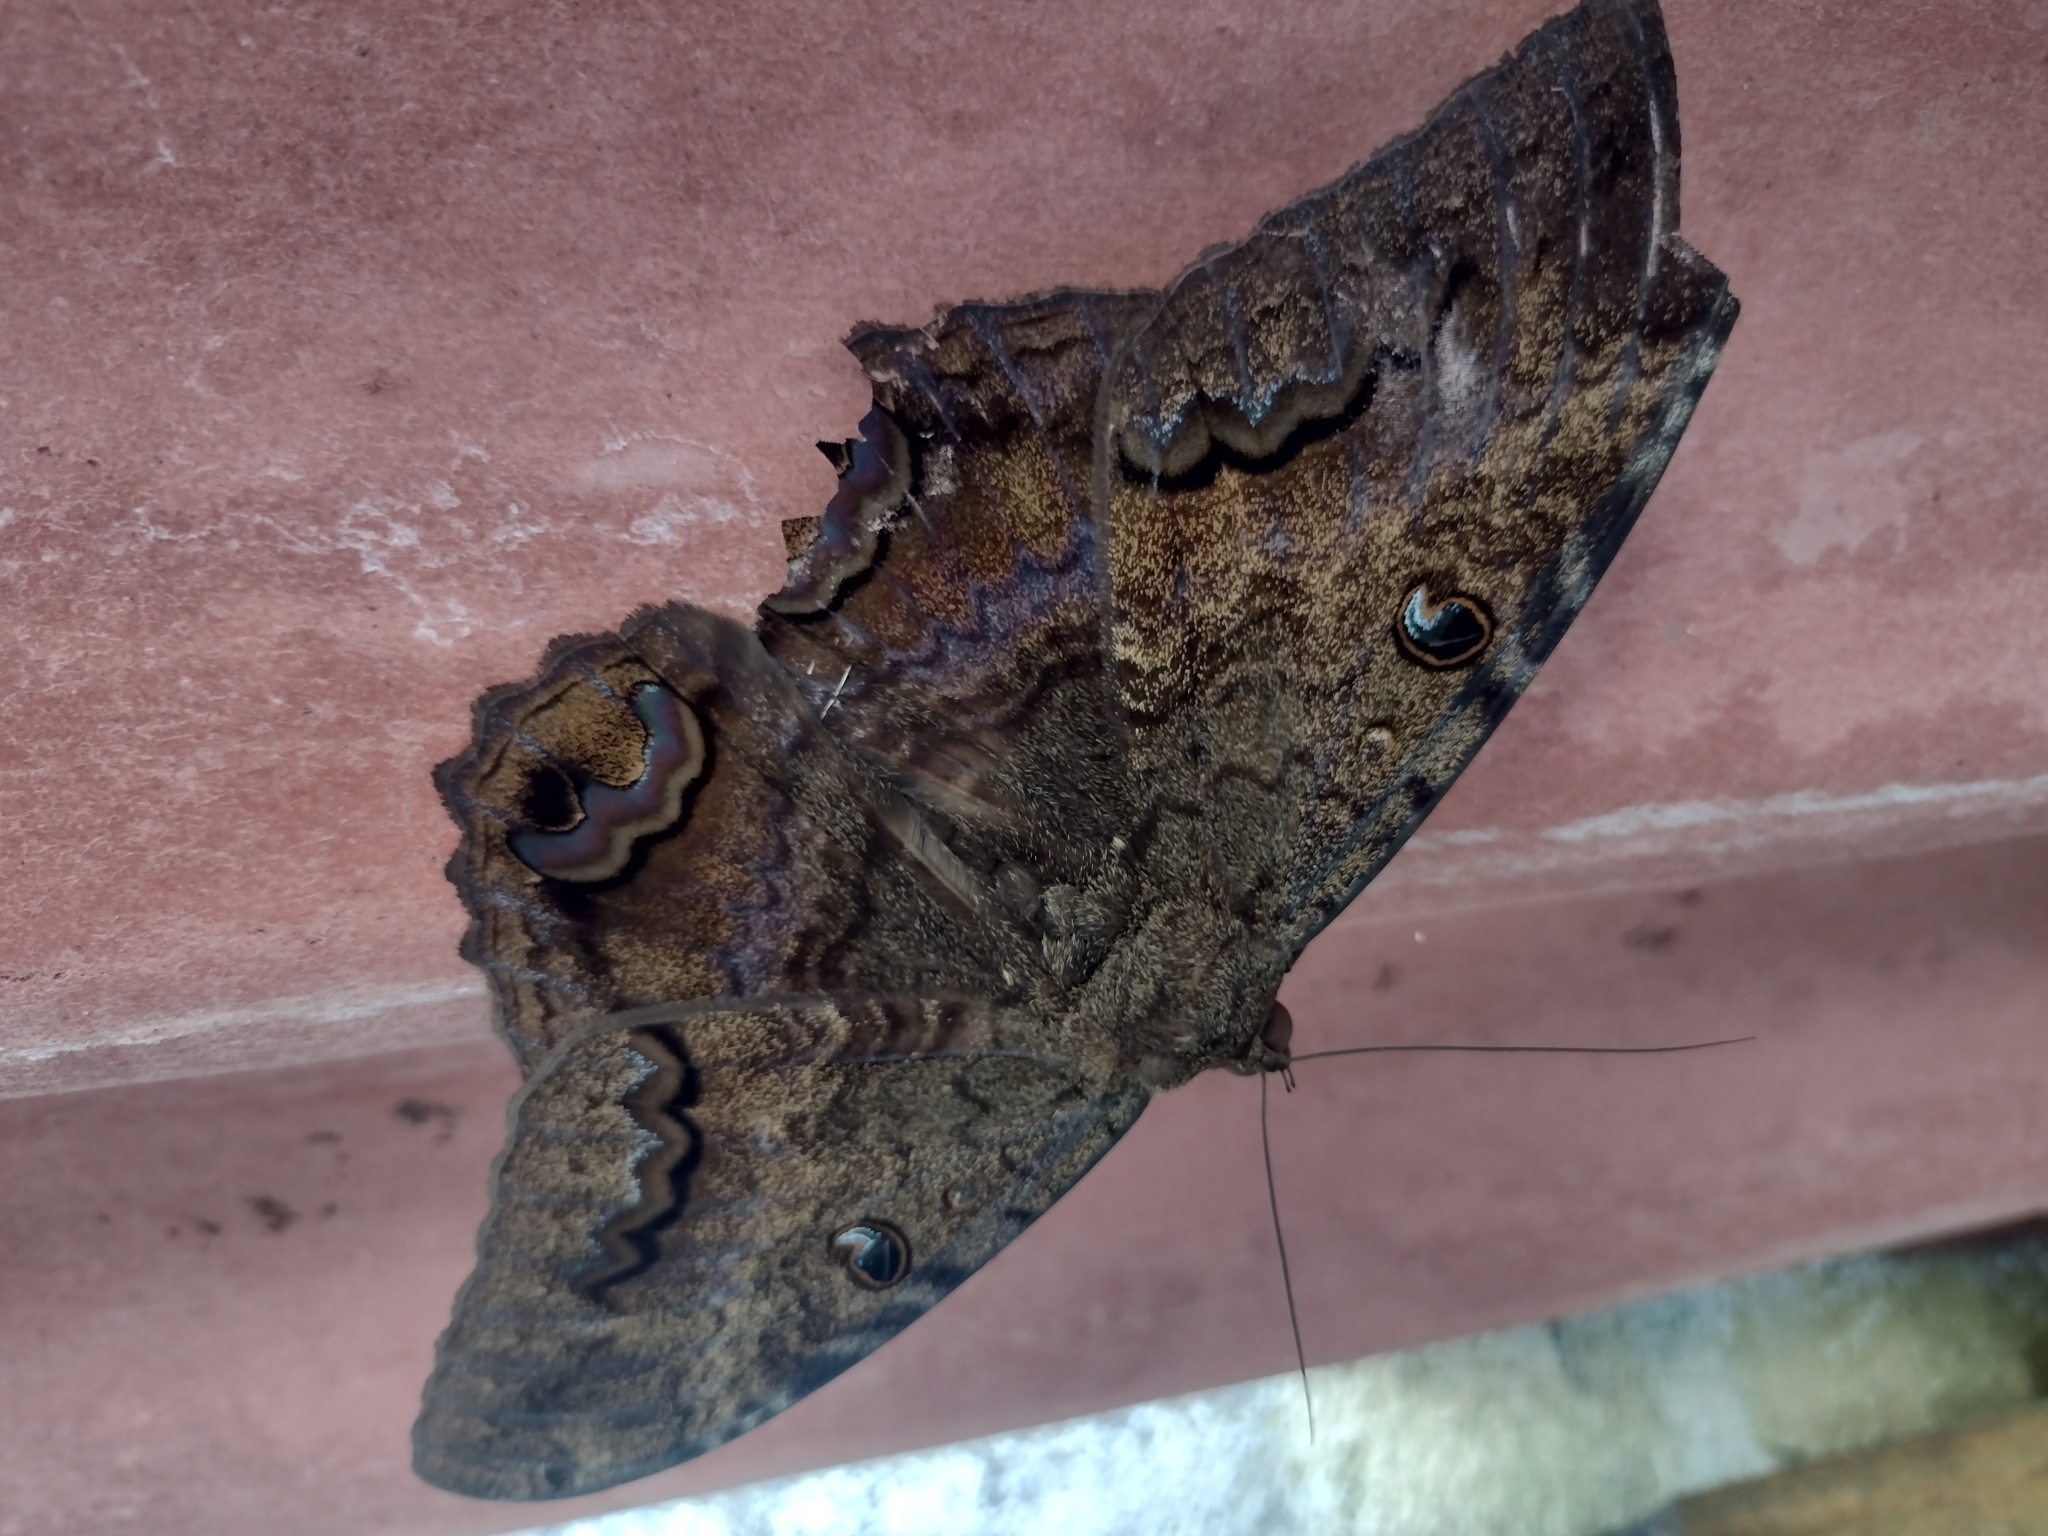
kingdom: Animalia
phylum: Arthropoda
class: Insecta
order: Lepidoptera
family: Erebidae
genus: Ascalapha
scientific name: Ascalapha odorata
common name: Black witch
